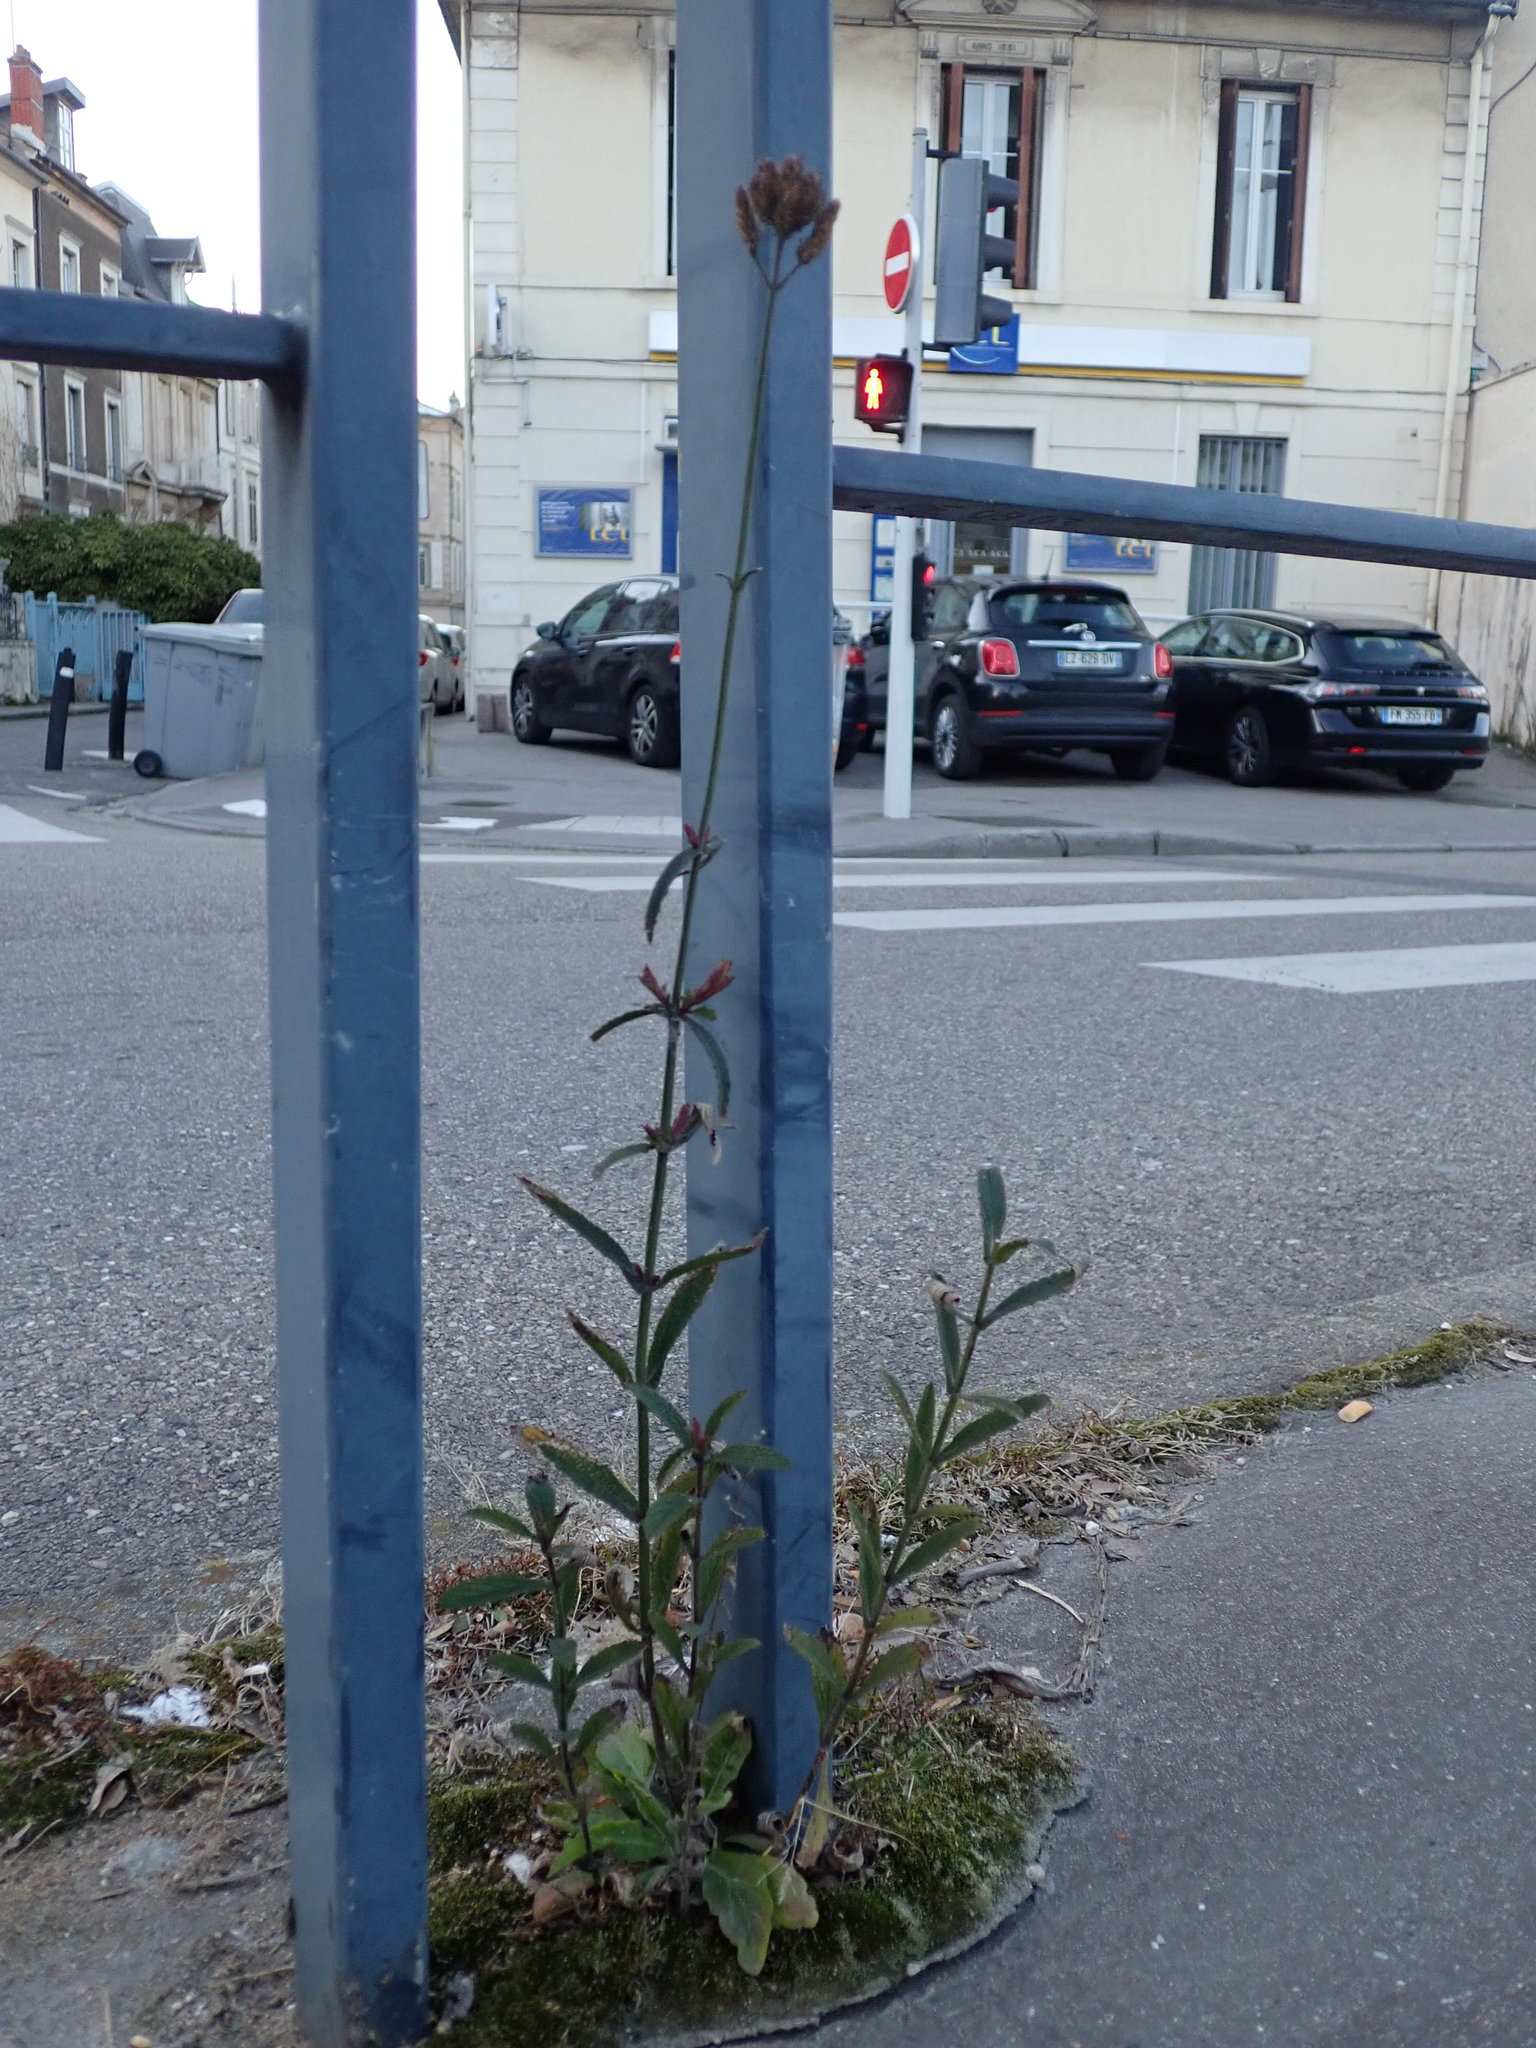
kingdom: Plantae
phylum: Tracheophyta
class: Magnoliopsida
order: Lamiales
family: Verbenaceae
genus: Verbena
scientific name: Verbena bonariensis
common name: Purpletop vervain
